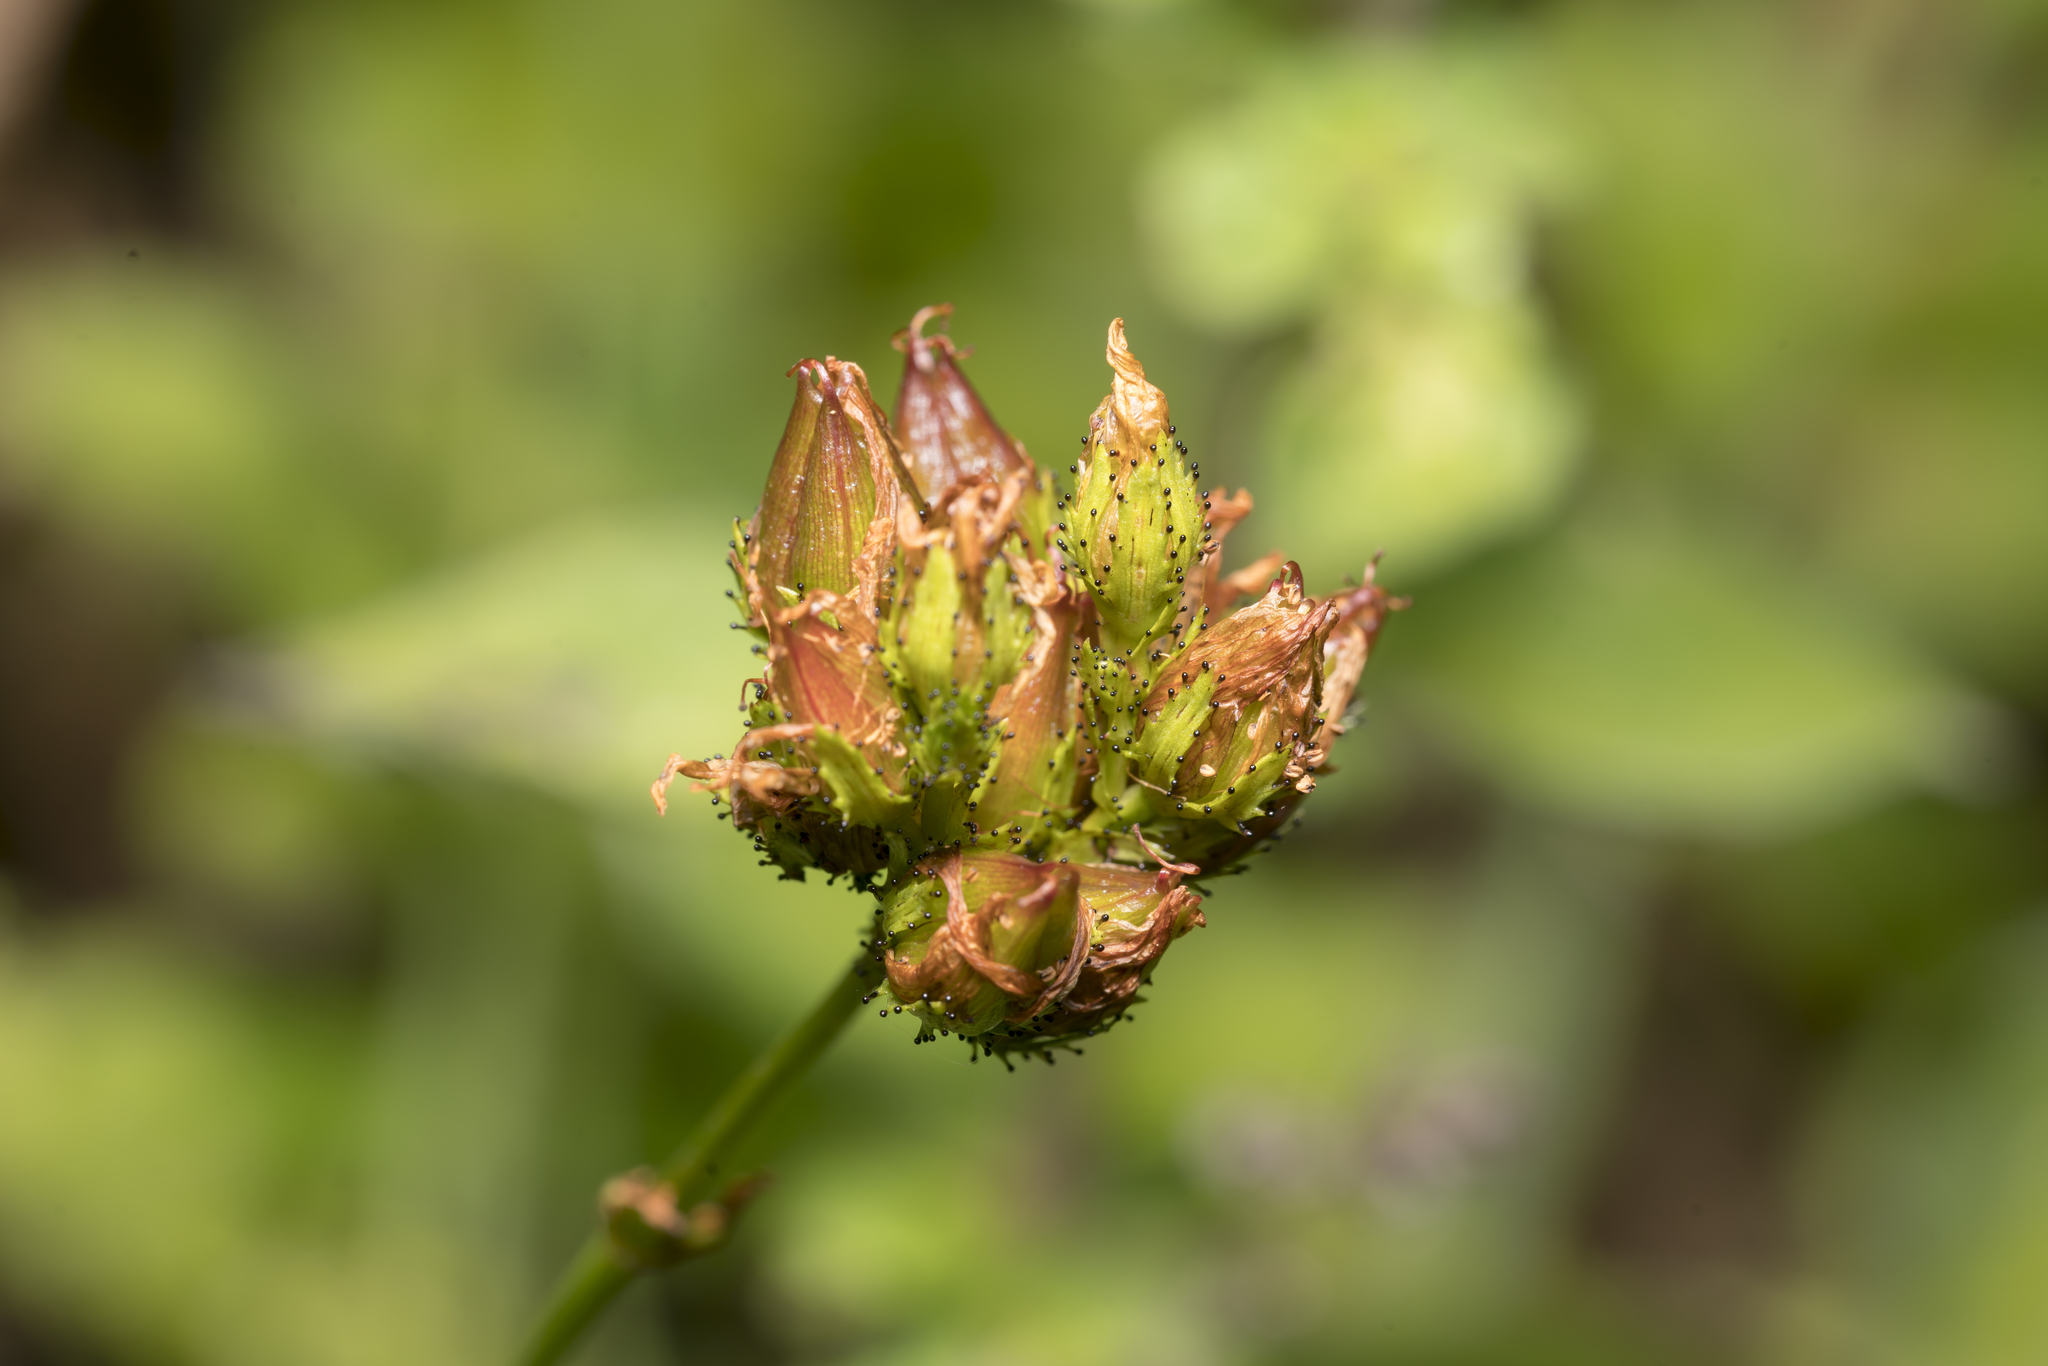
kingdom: Plantae
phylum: Tracheophyta
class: Magnoliopsida
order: Malpighiales
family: Hypericaceae
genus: Hypericum
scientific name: Hypericum montanum
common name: Pale st. john's-wort
